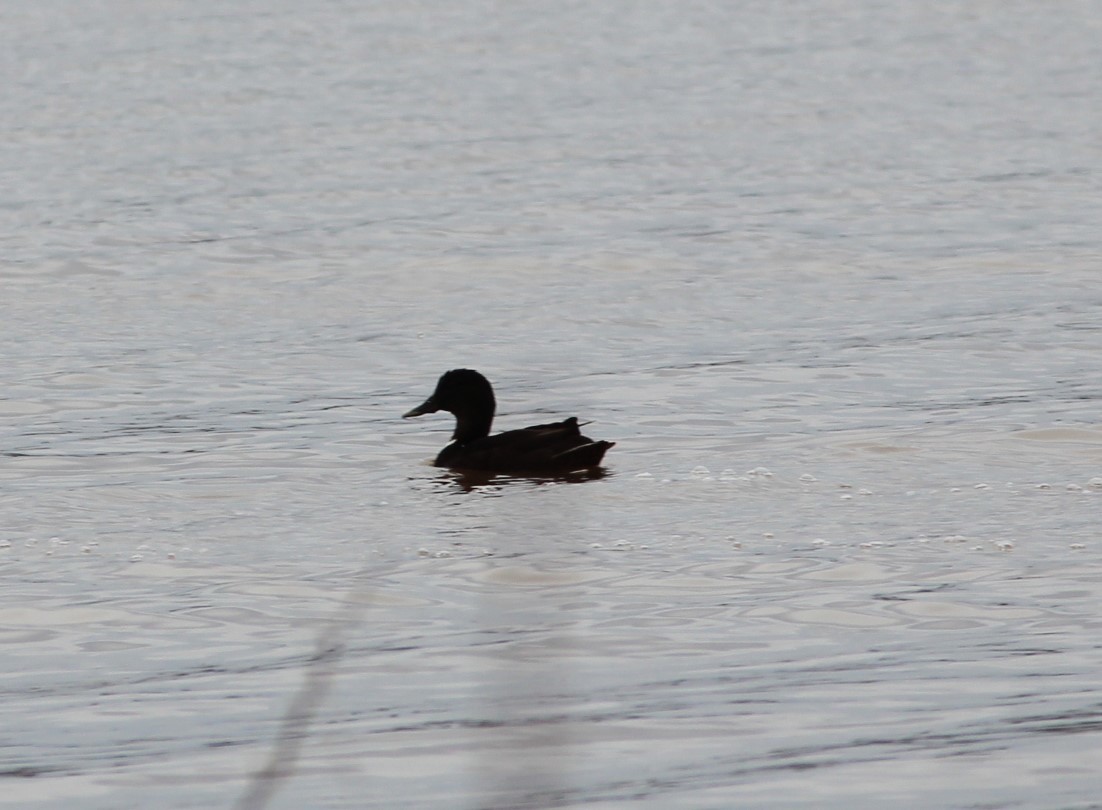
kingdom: Animalia
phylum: Chordata
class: Aves
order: Anseriformes
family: Anatidae
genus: Anas
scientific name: Anas platyrhynchos
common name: Mallard
